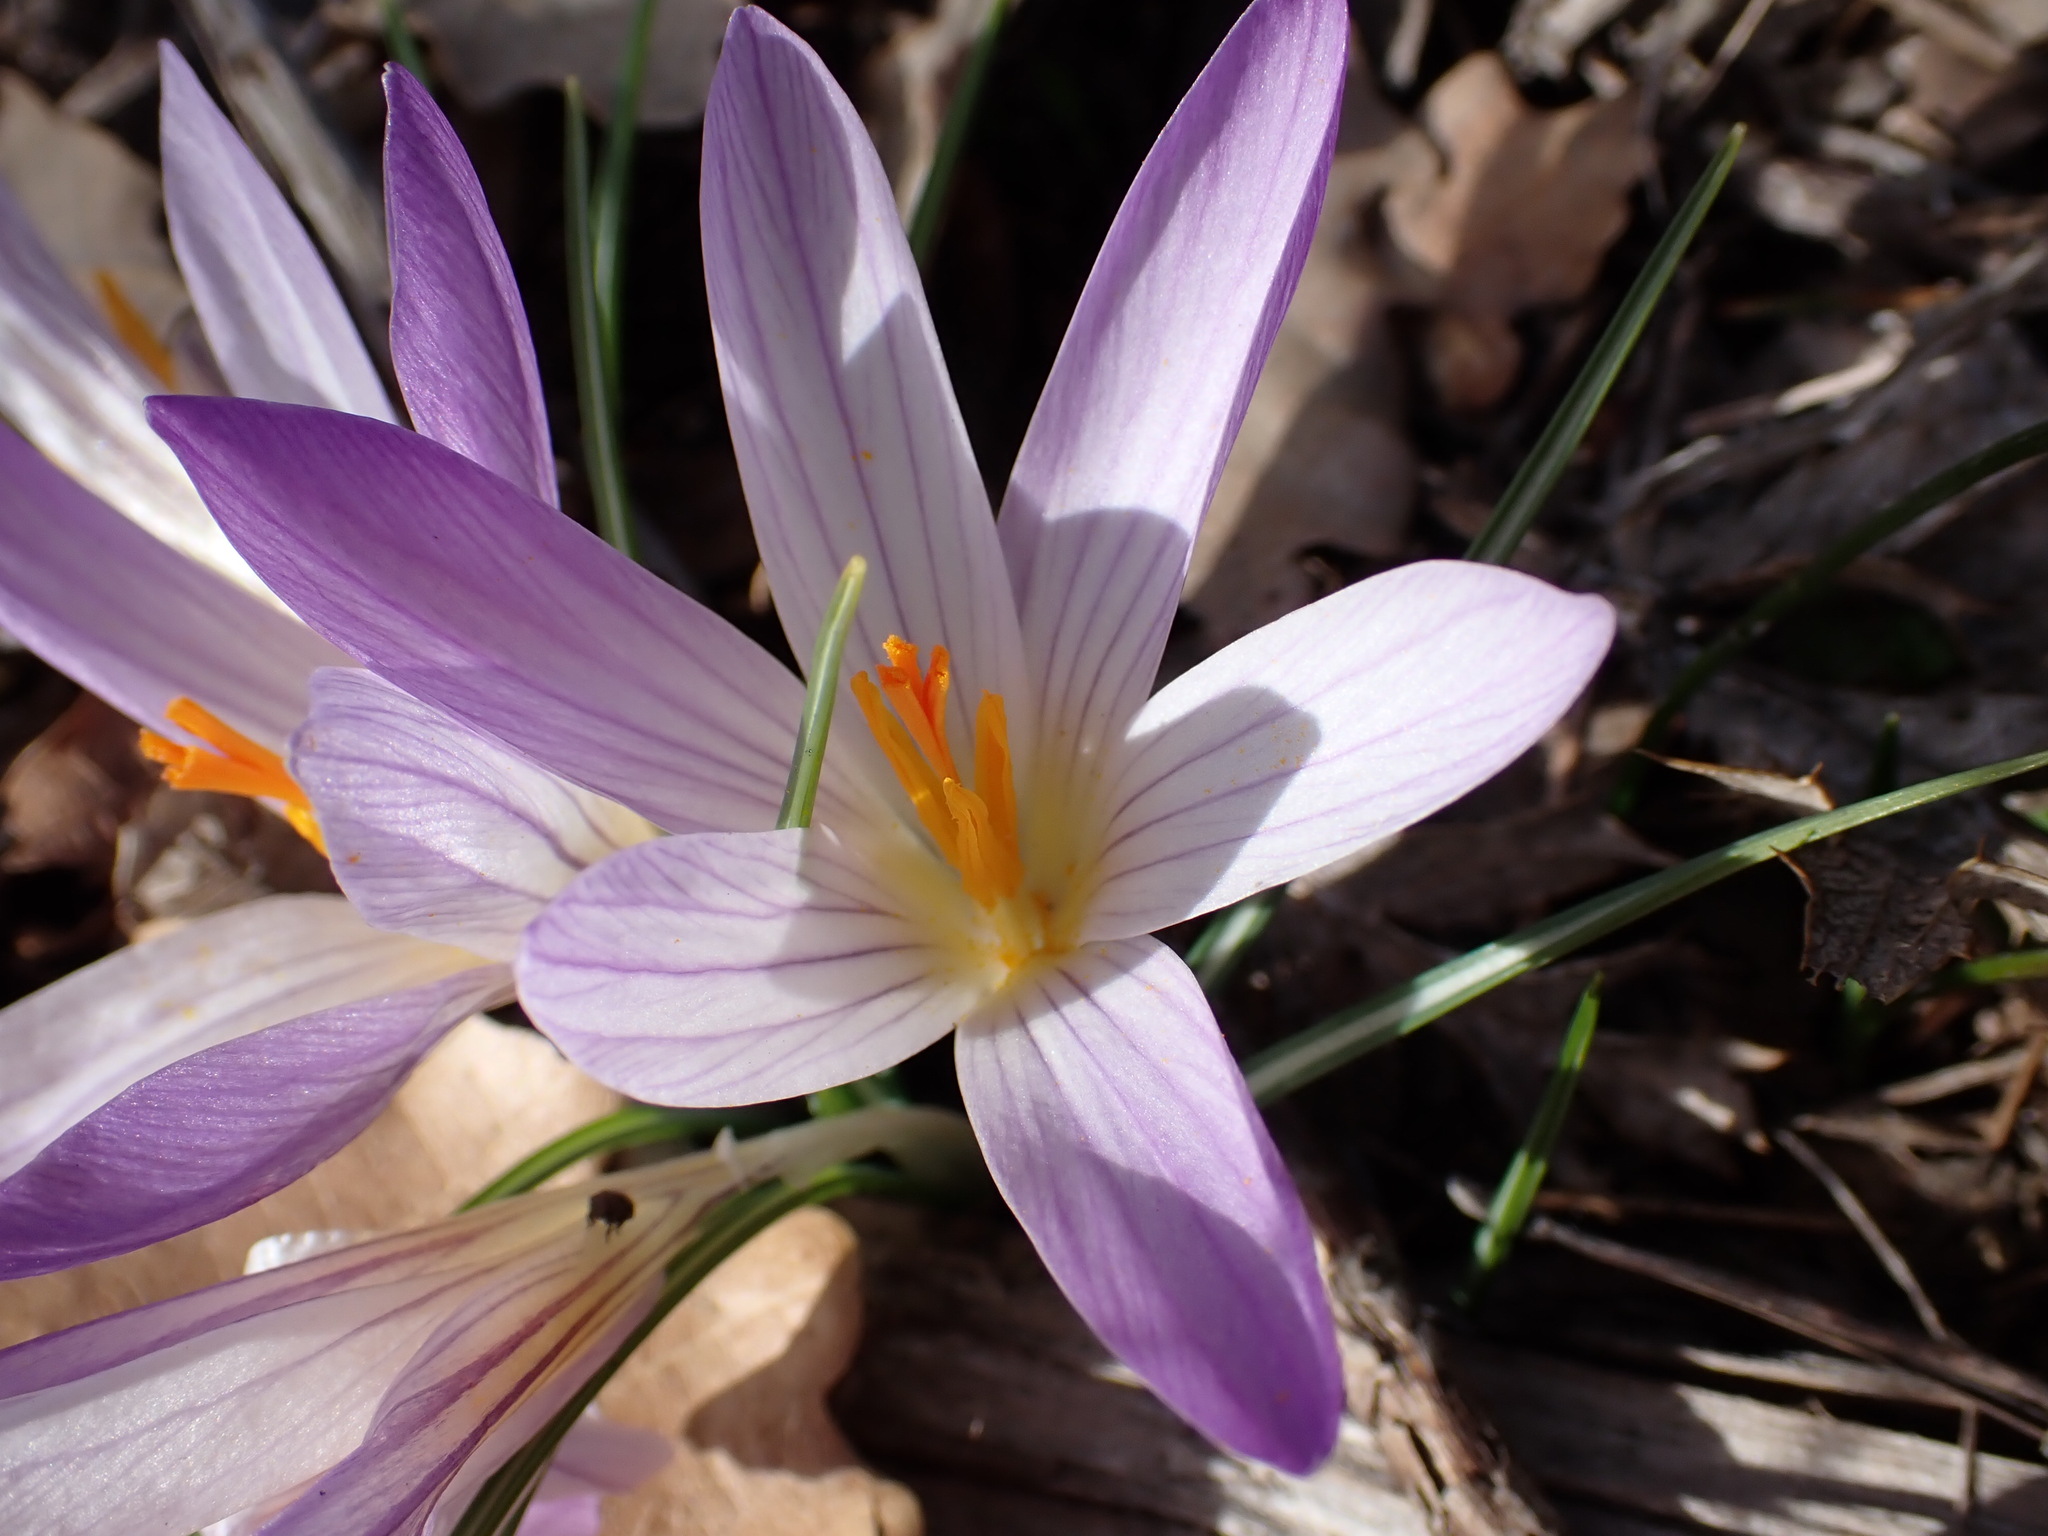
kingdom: Plantae
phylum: Tracheophyta
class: Liliopsida
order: Asparagales
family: Iridaceae
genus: Crocus
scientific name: Crocus versicolor
